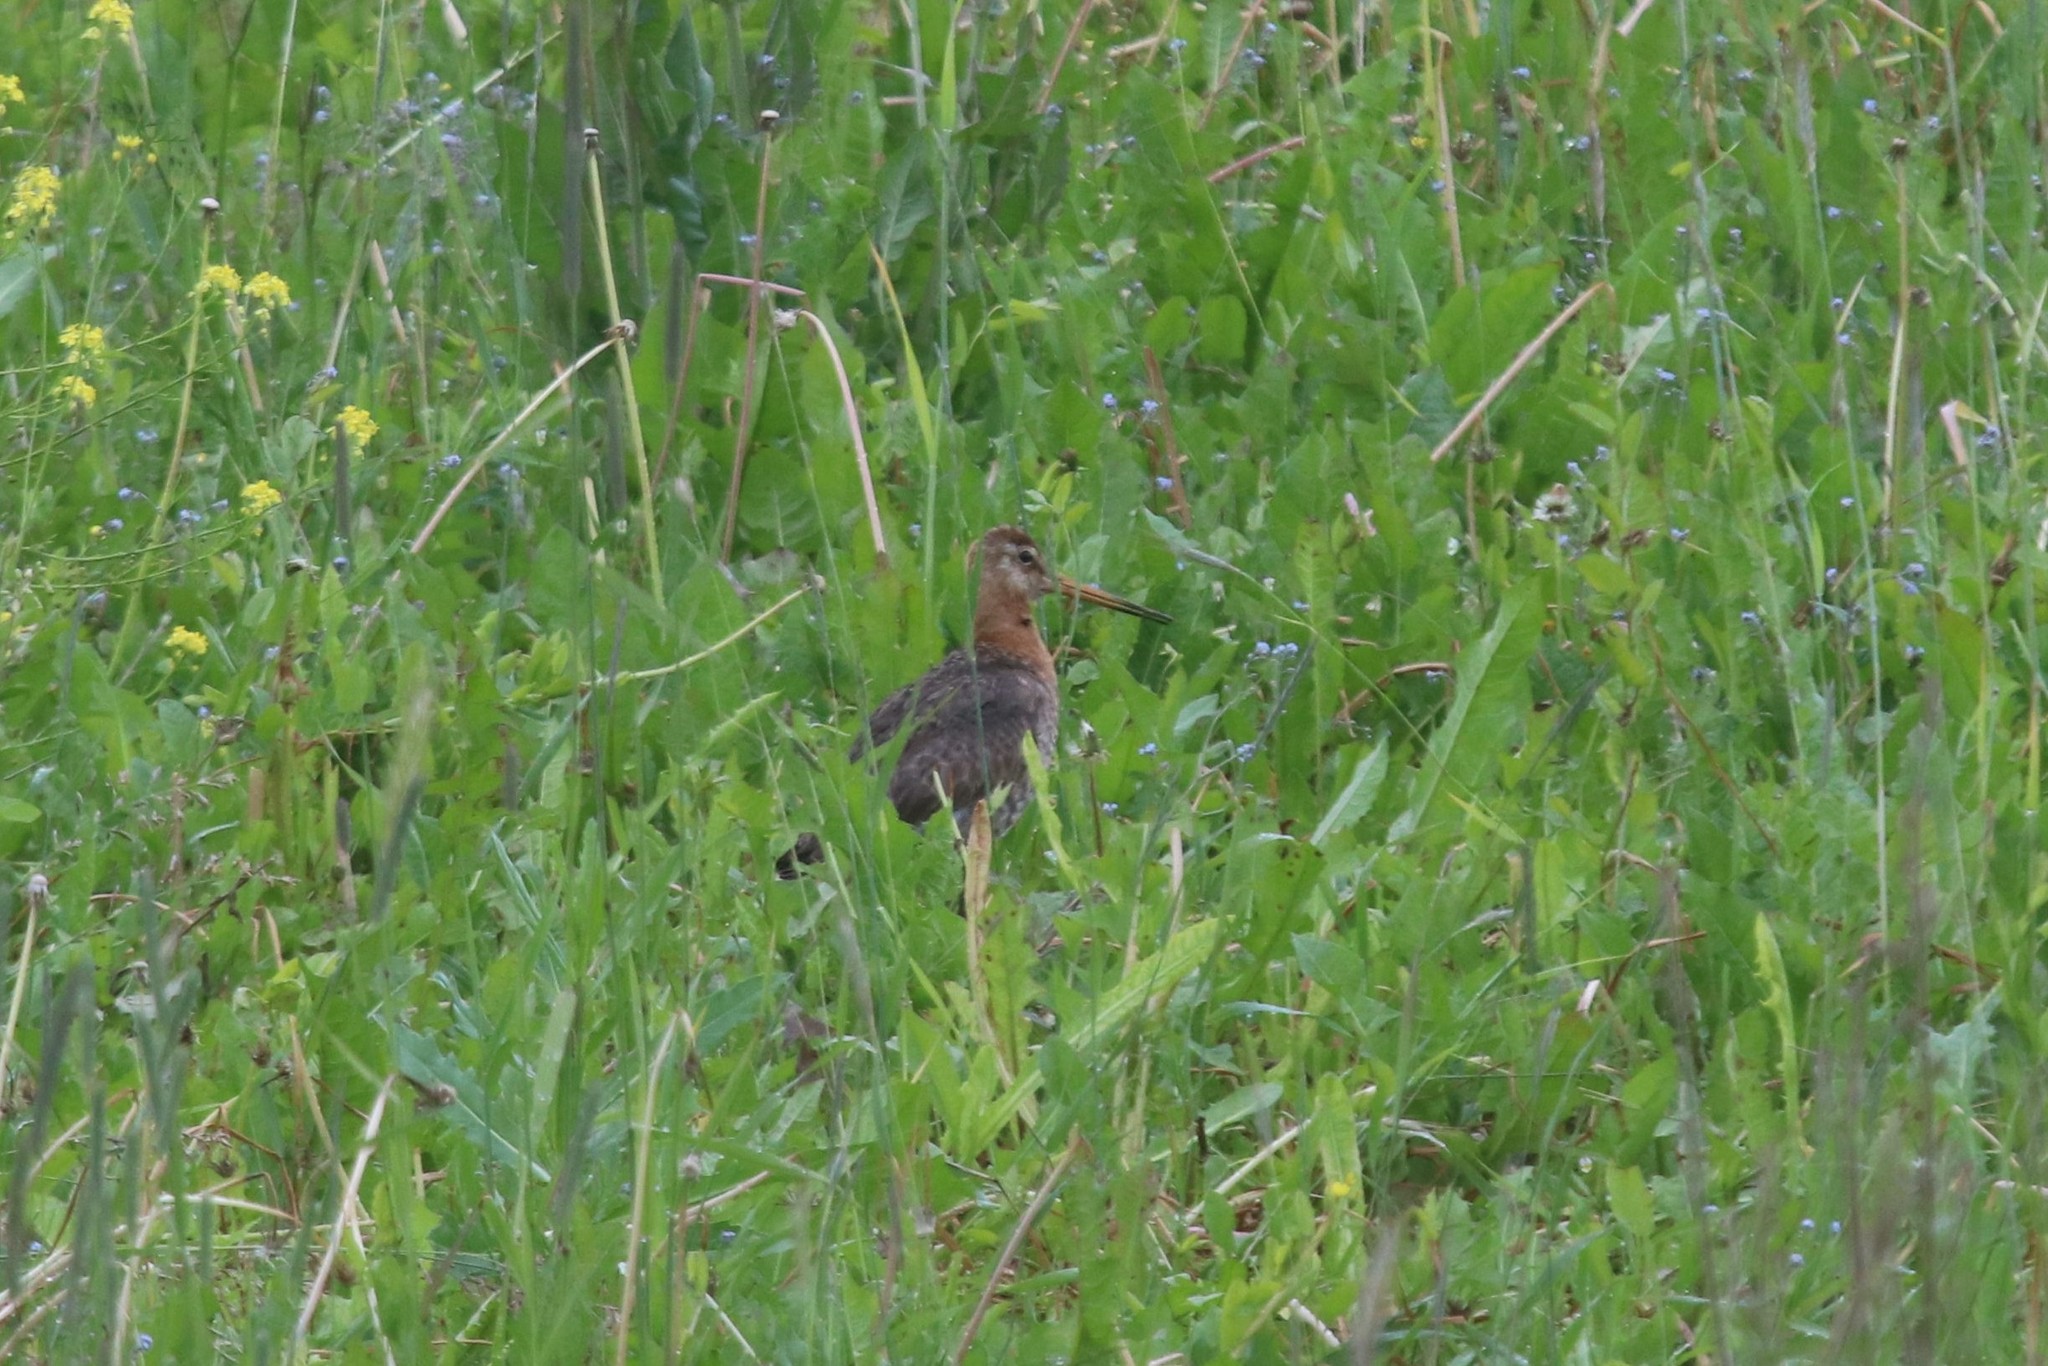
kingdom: Animalia
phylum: Chordata
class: Aves
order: Charadriiformes
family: Scolopacidae
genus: Limosa
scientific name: Limosa limosa
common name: Black-tailed godwit
